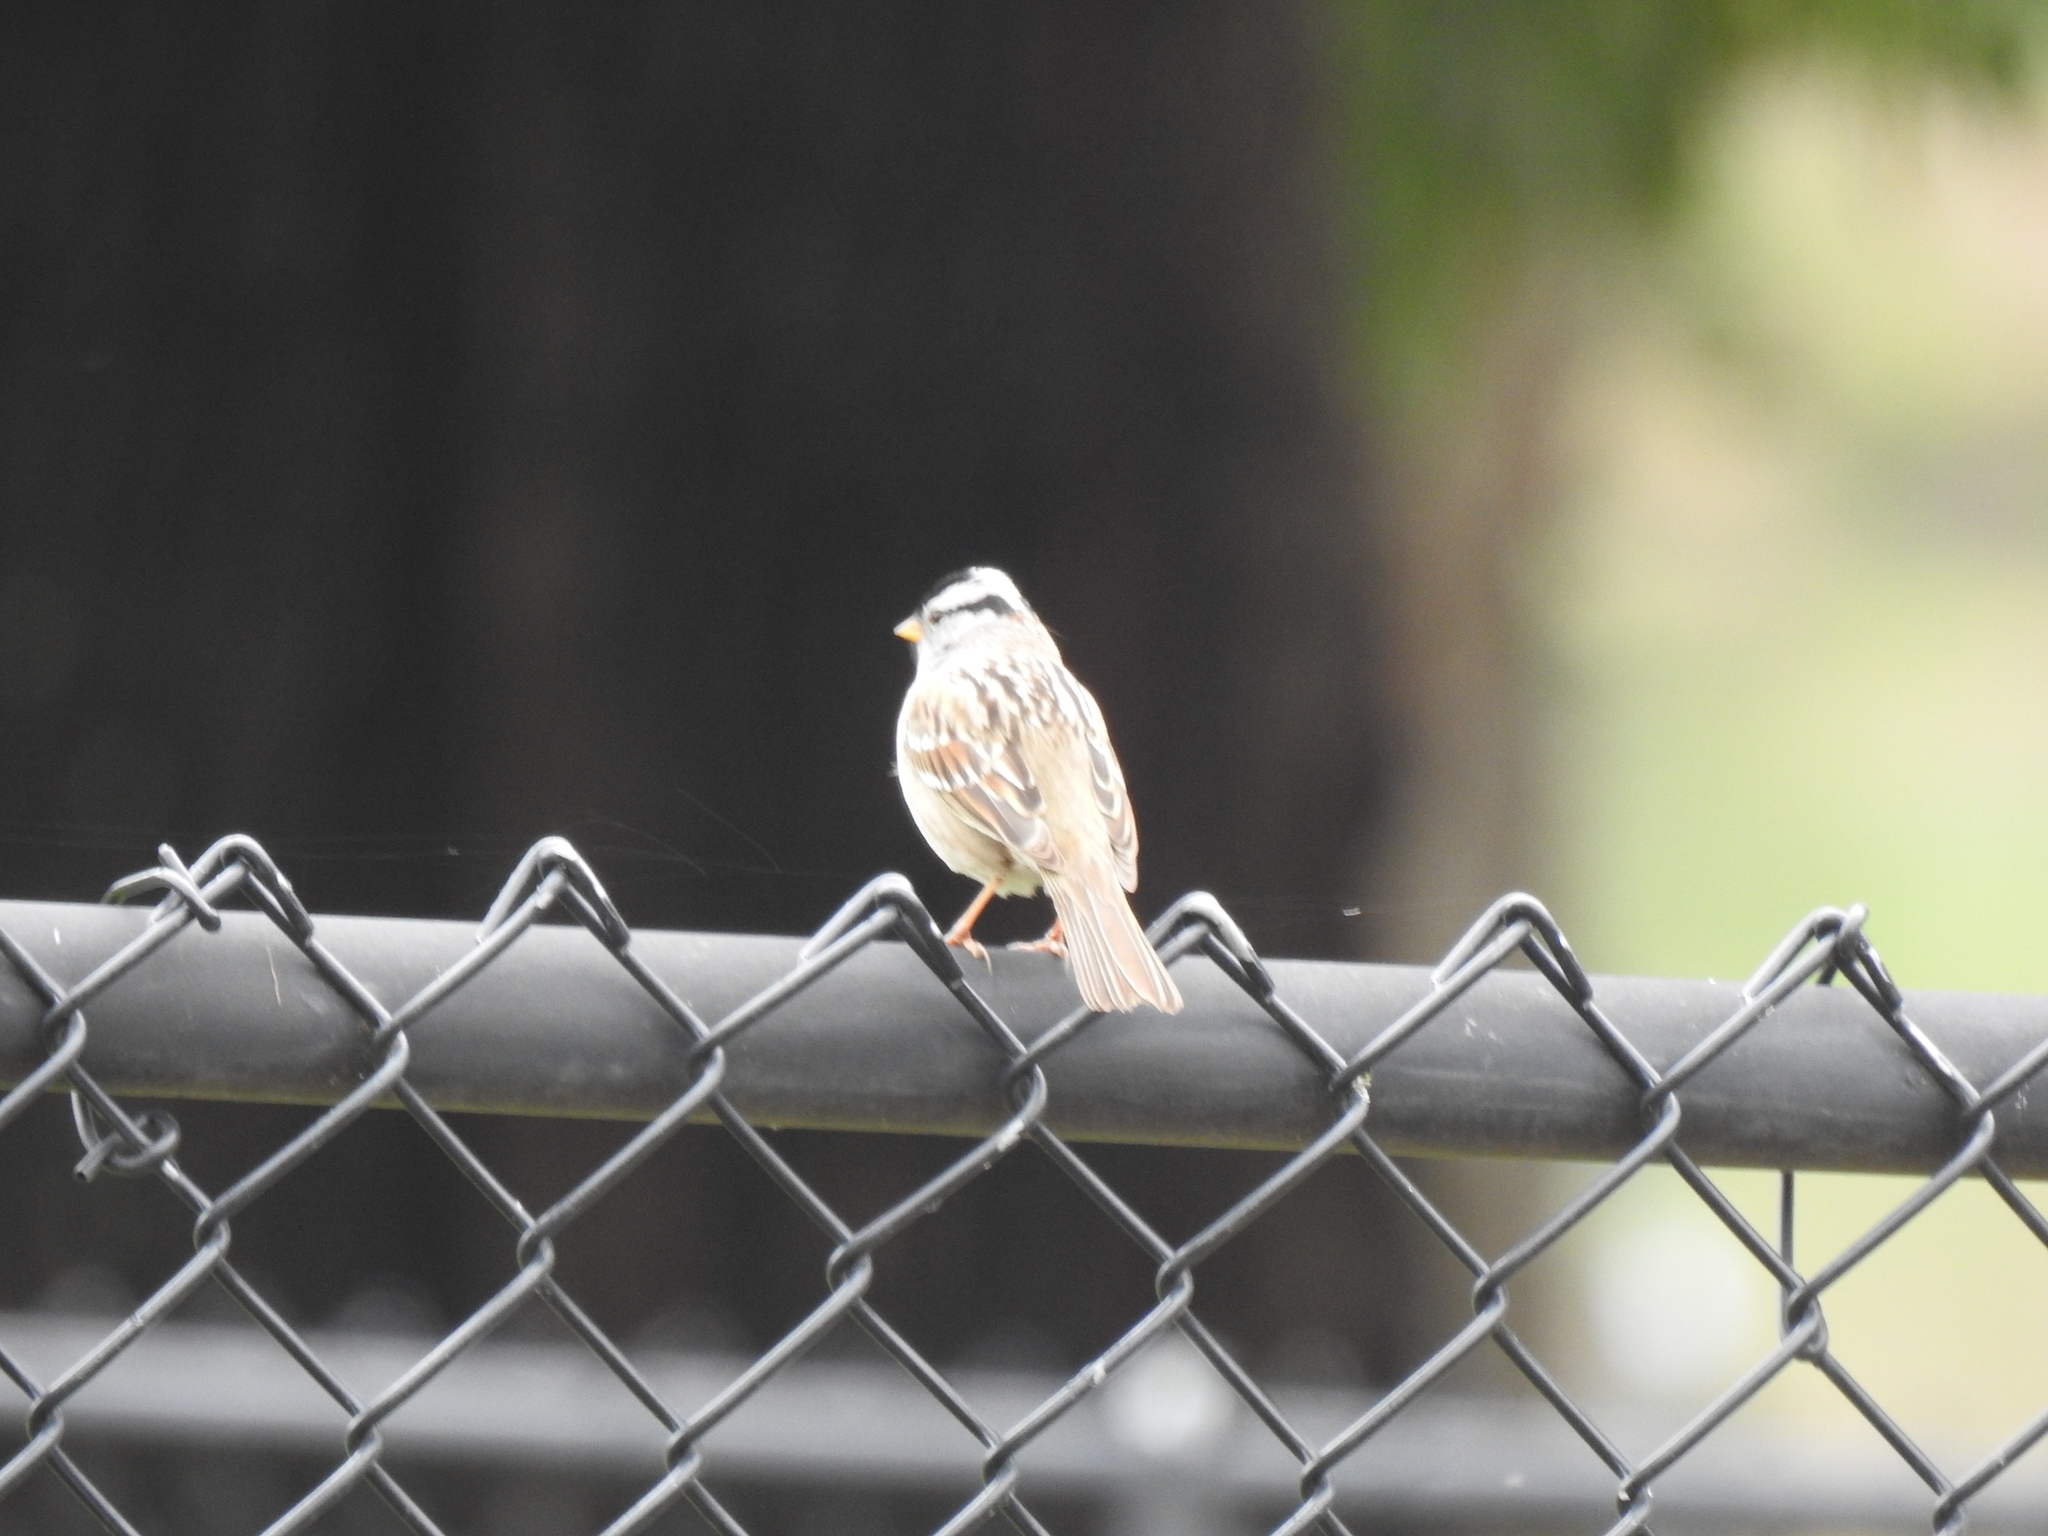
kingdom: Animalia
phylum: Chordata
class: Aves
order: Passeriformes
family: Passerellidae
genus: Zonotrichia
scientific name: Zonotrichia leucophrys
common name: White-crowned sparrow
